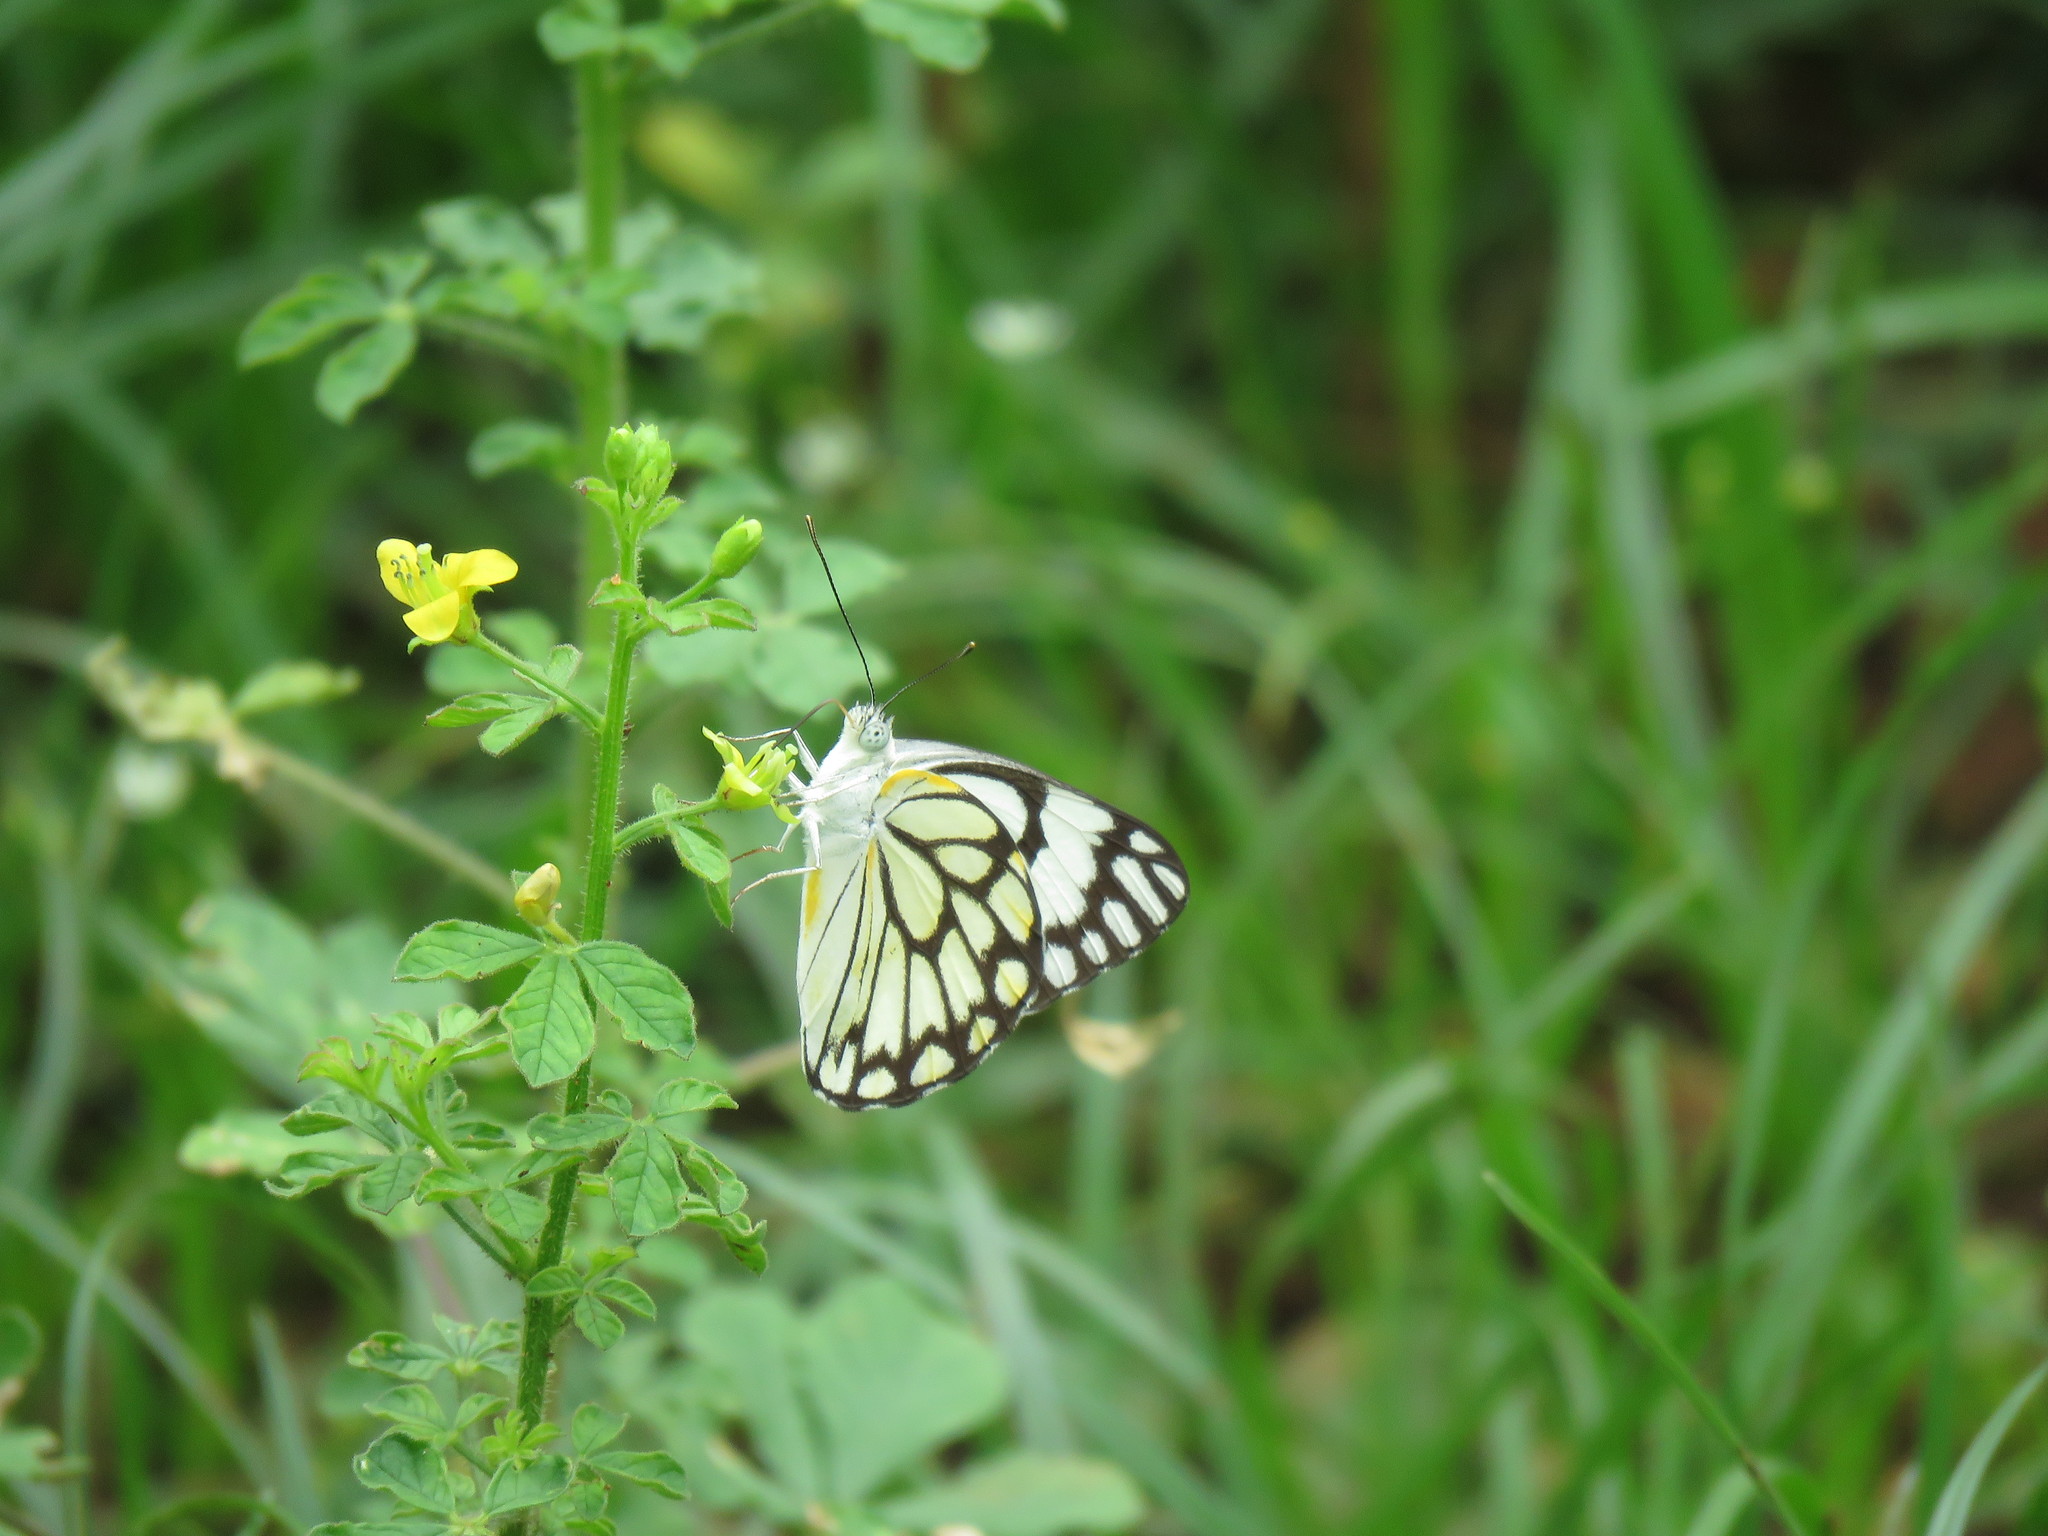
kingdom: Animalia
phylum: Arthropoda
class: Insecta
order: Lepidoptera
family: Pieridae
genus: Belenois
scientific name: Belenois aurota
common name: Brown-veined white
